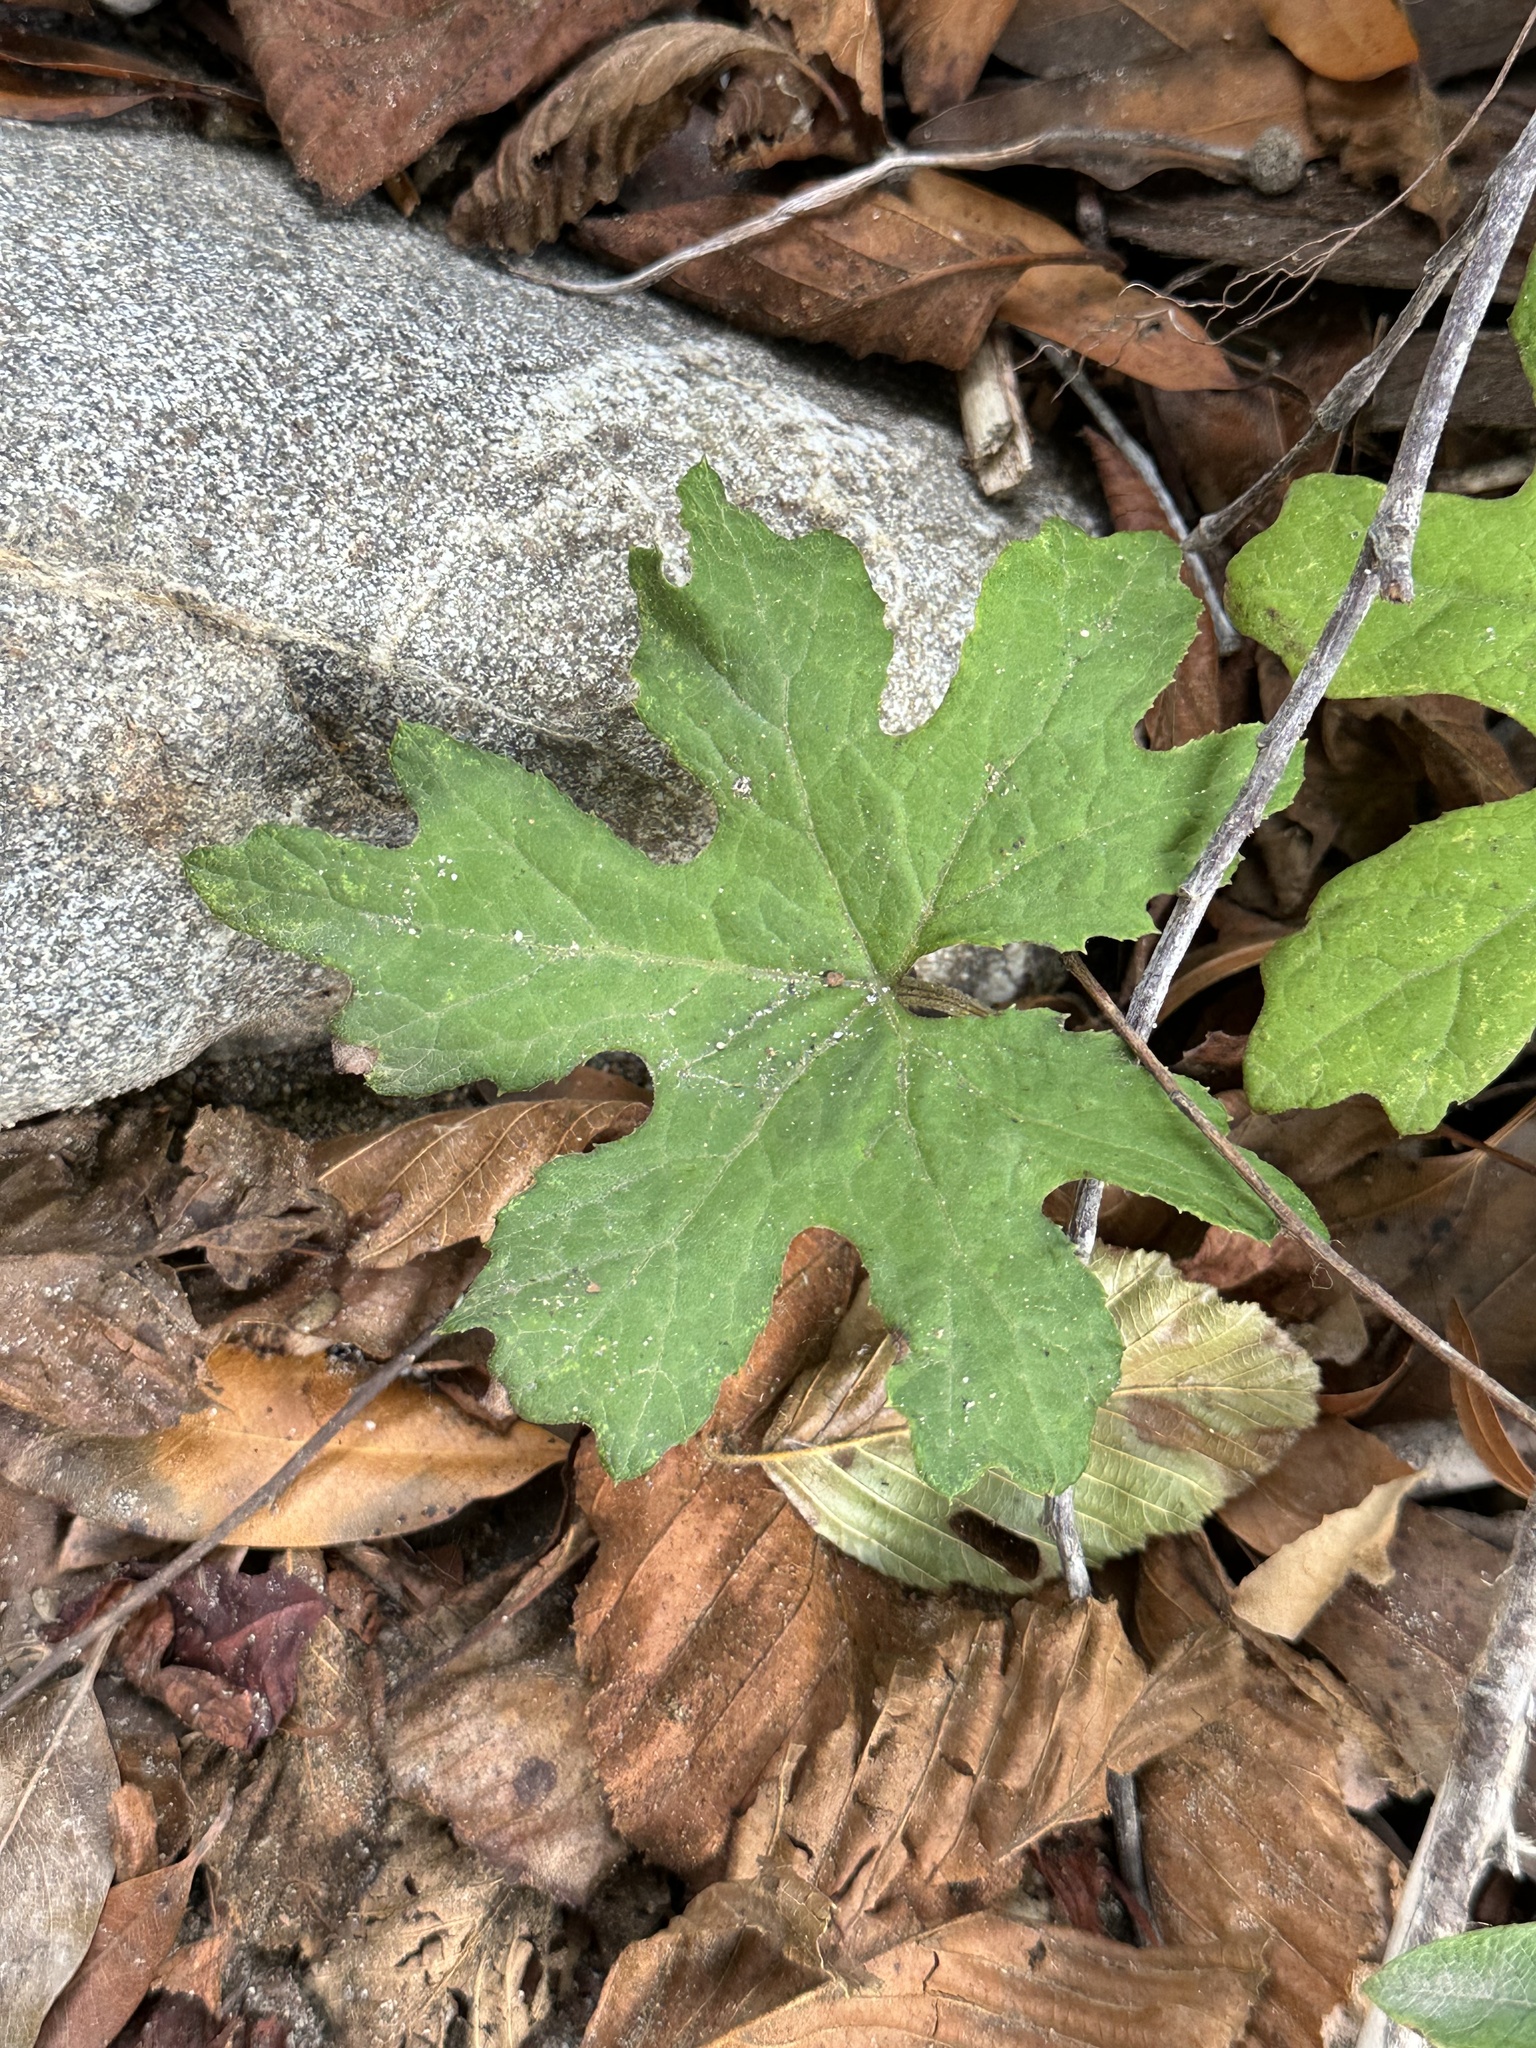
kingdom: Plantae
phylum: Tracheophyta
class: Magnoliopsida
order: Asterales
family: Asteraceae
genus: Petasites
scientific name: Petasites frigidus
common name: Arctic butterbur
